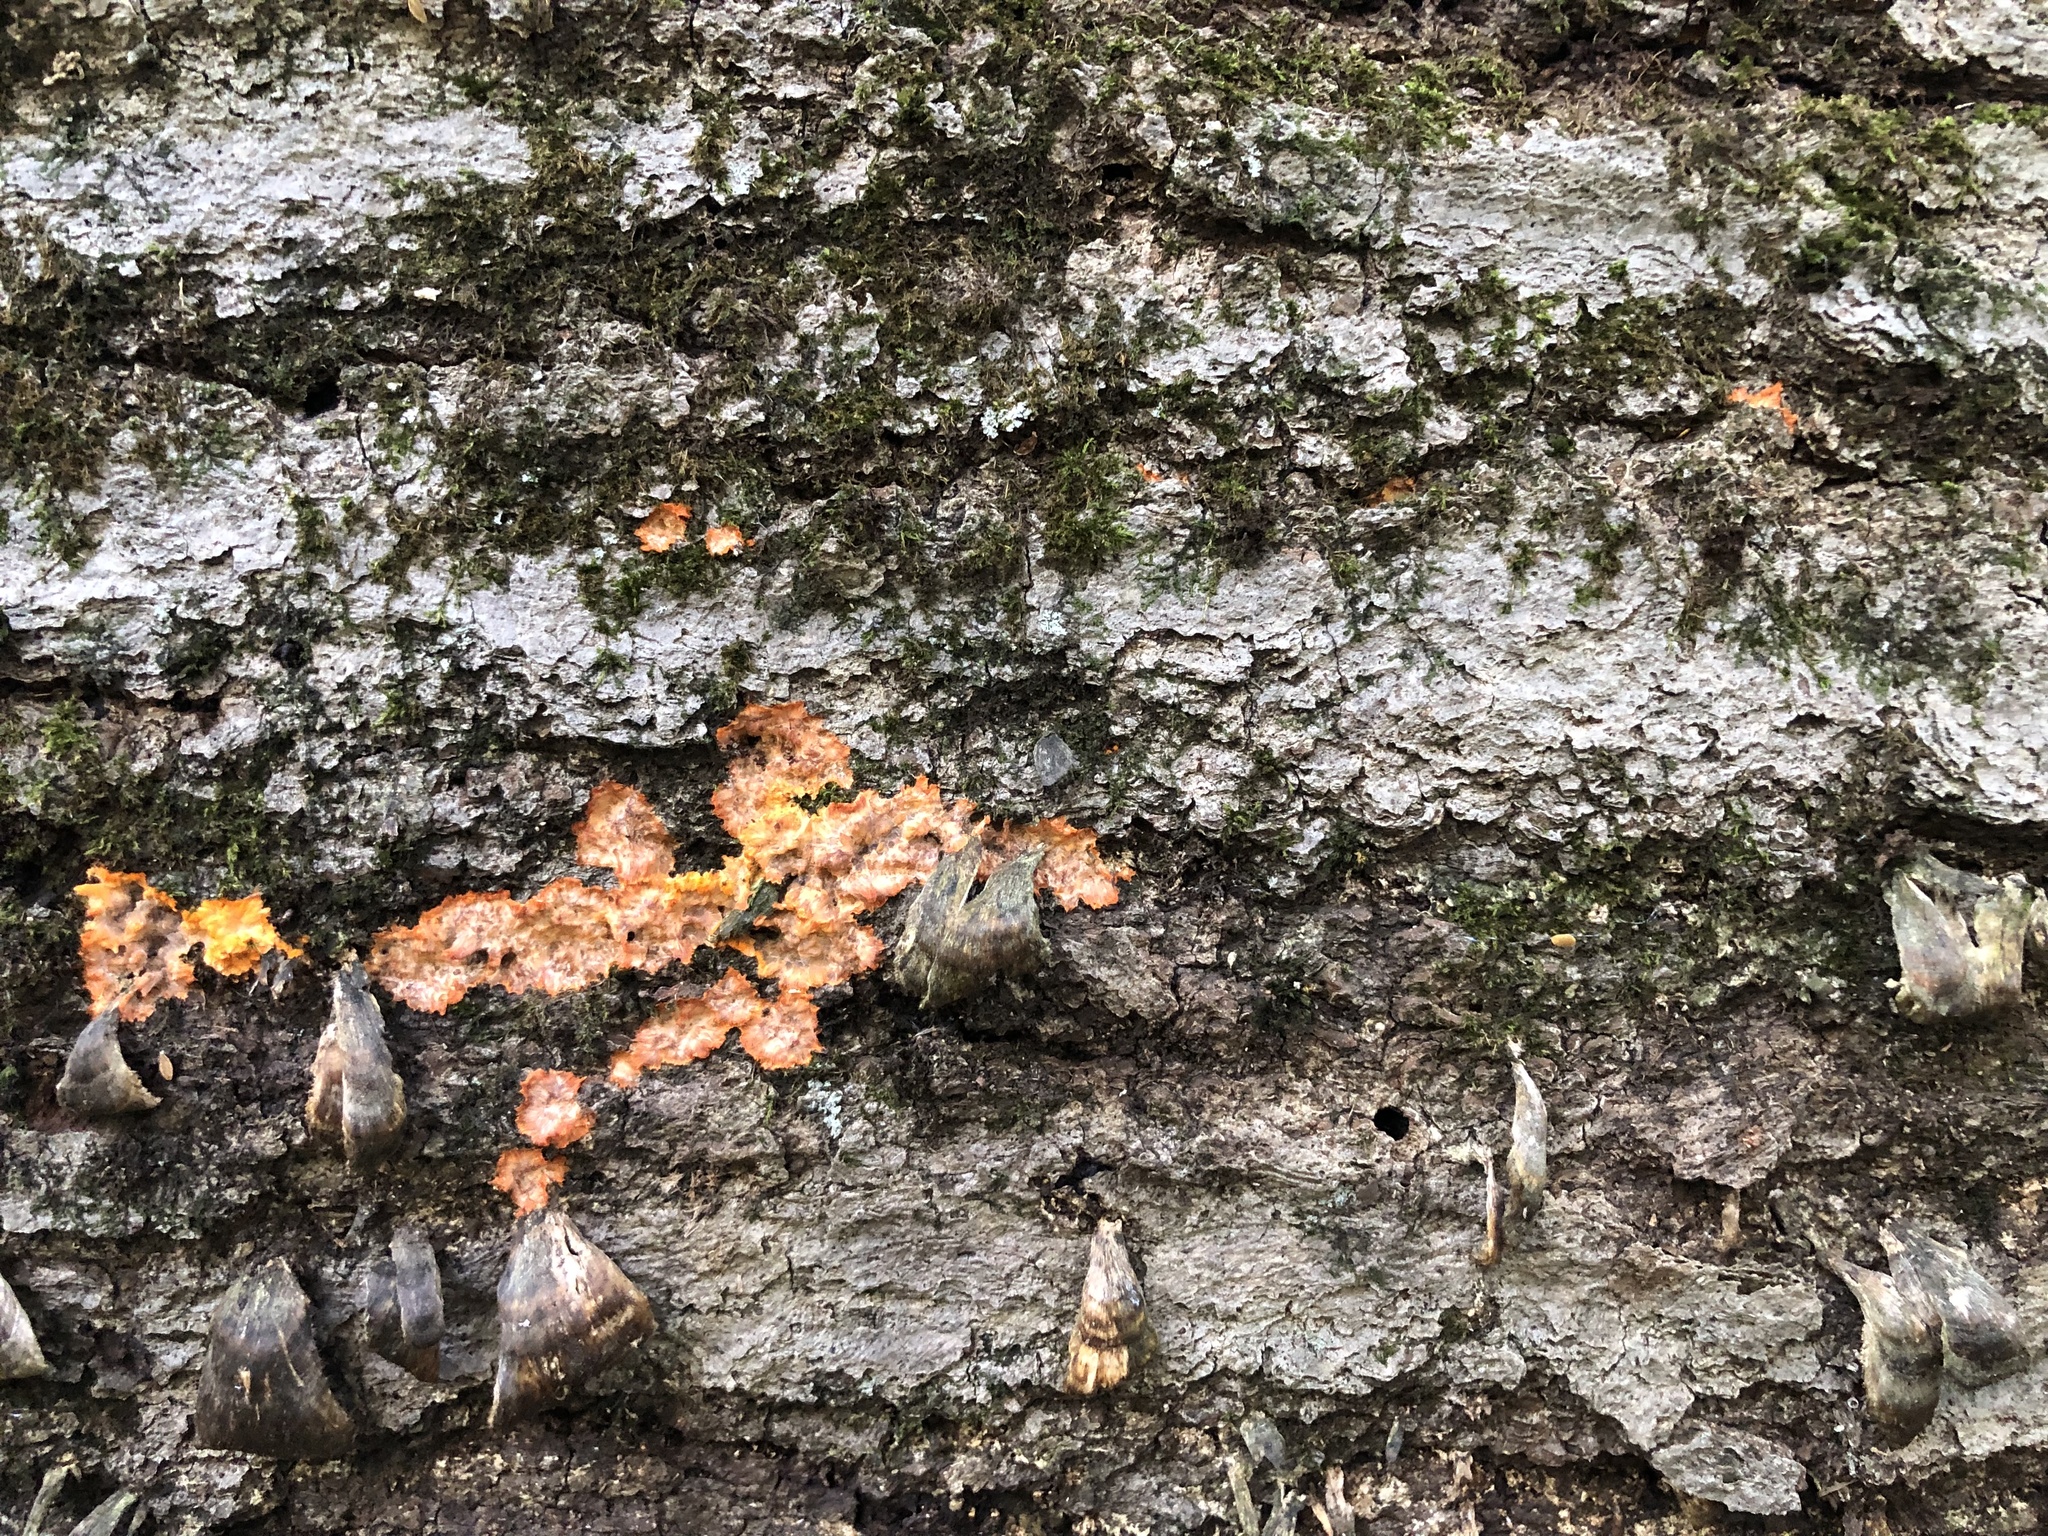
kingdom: Fungi
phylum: Basidiomycota
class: Agaricomycetes
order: Polyporales
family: Meruliaceae
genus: Phlebia
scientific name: Phlebia radiata
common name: Wrinkled crust
